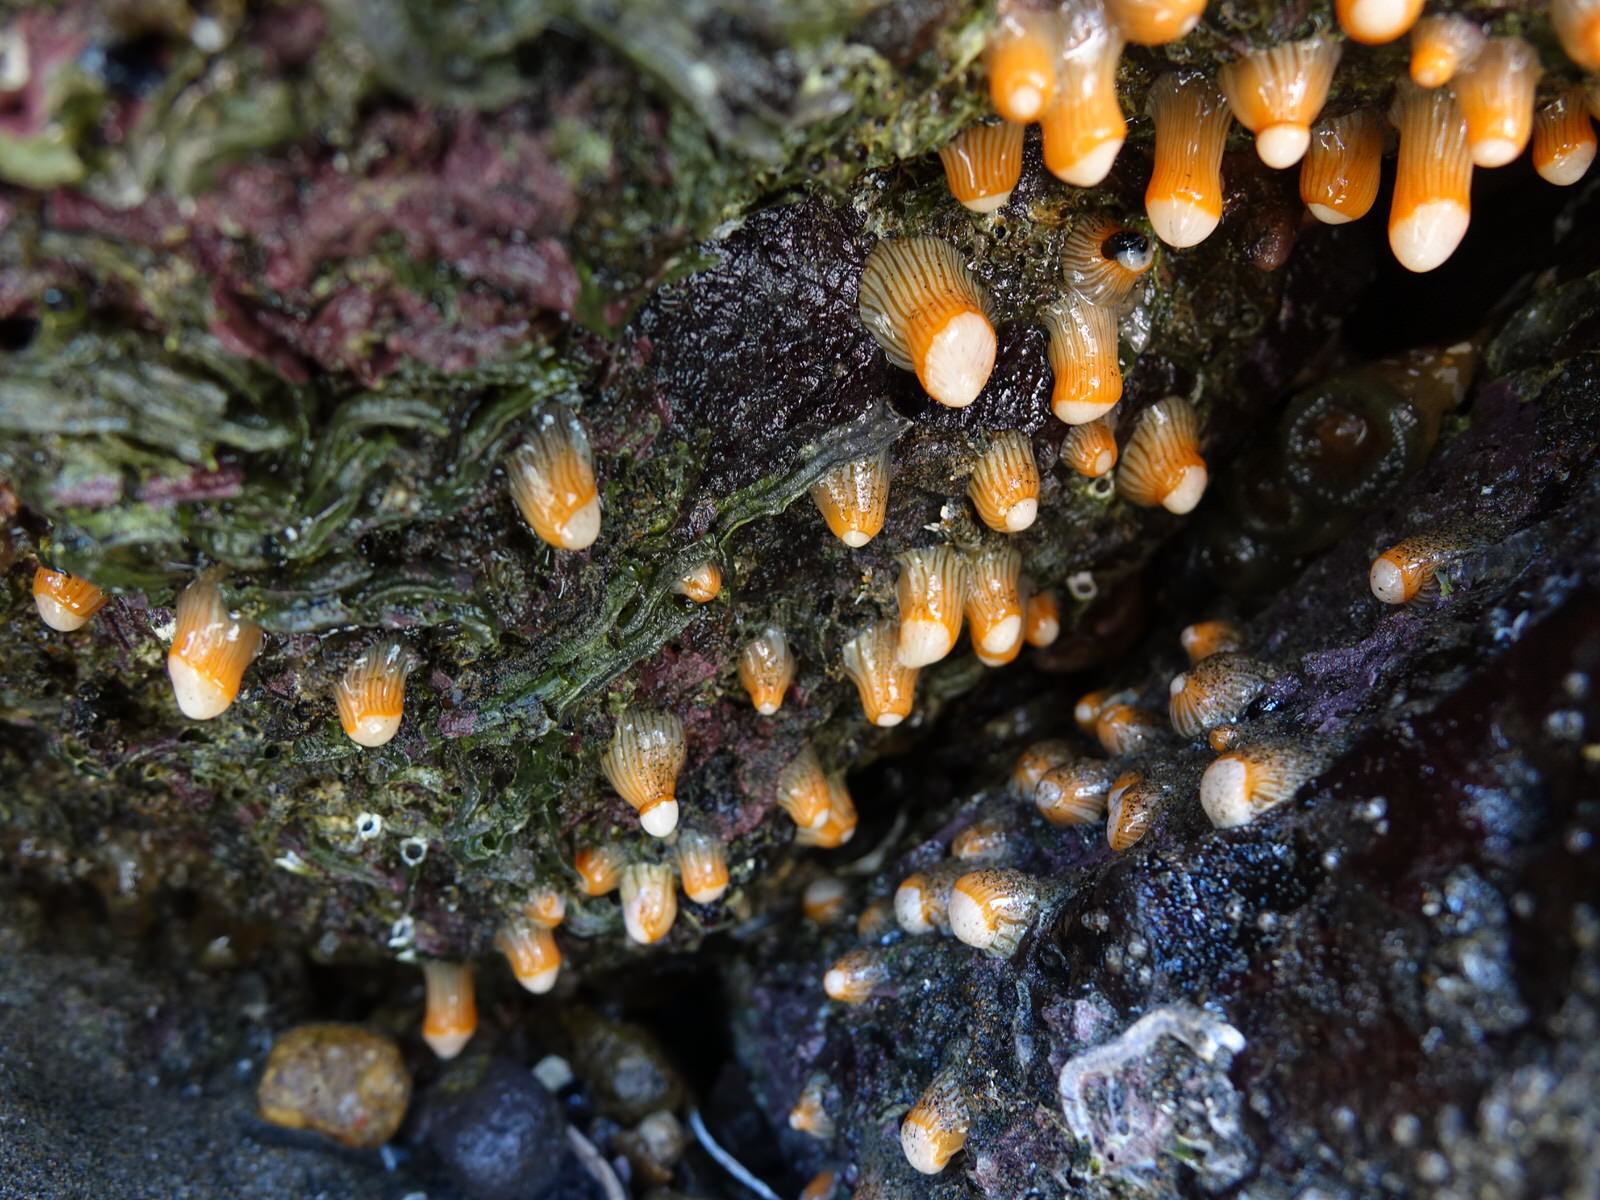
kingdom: Animalia
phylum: Cnidaria
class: Anthozoa
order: Actiniaria
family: Sagartiidae
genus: Anthothoe
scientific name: Anthothoe albocincta
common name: Orange striped anemone
